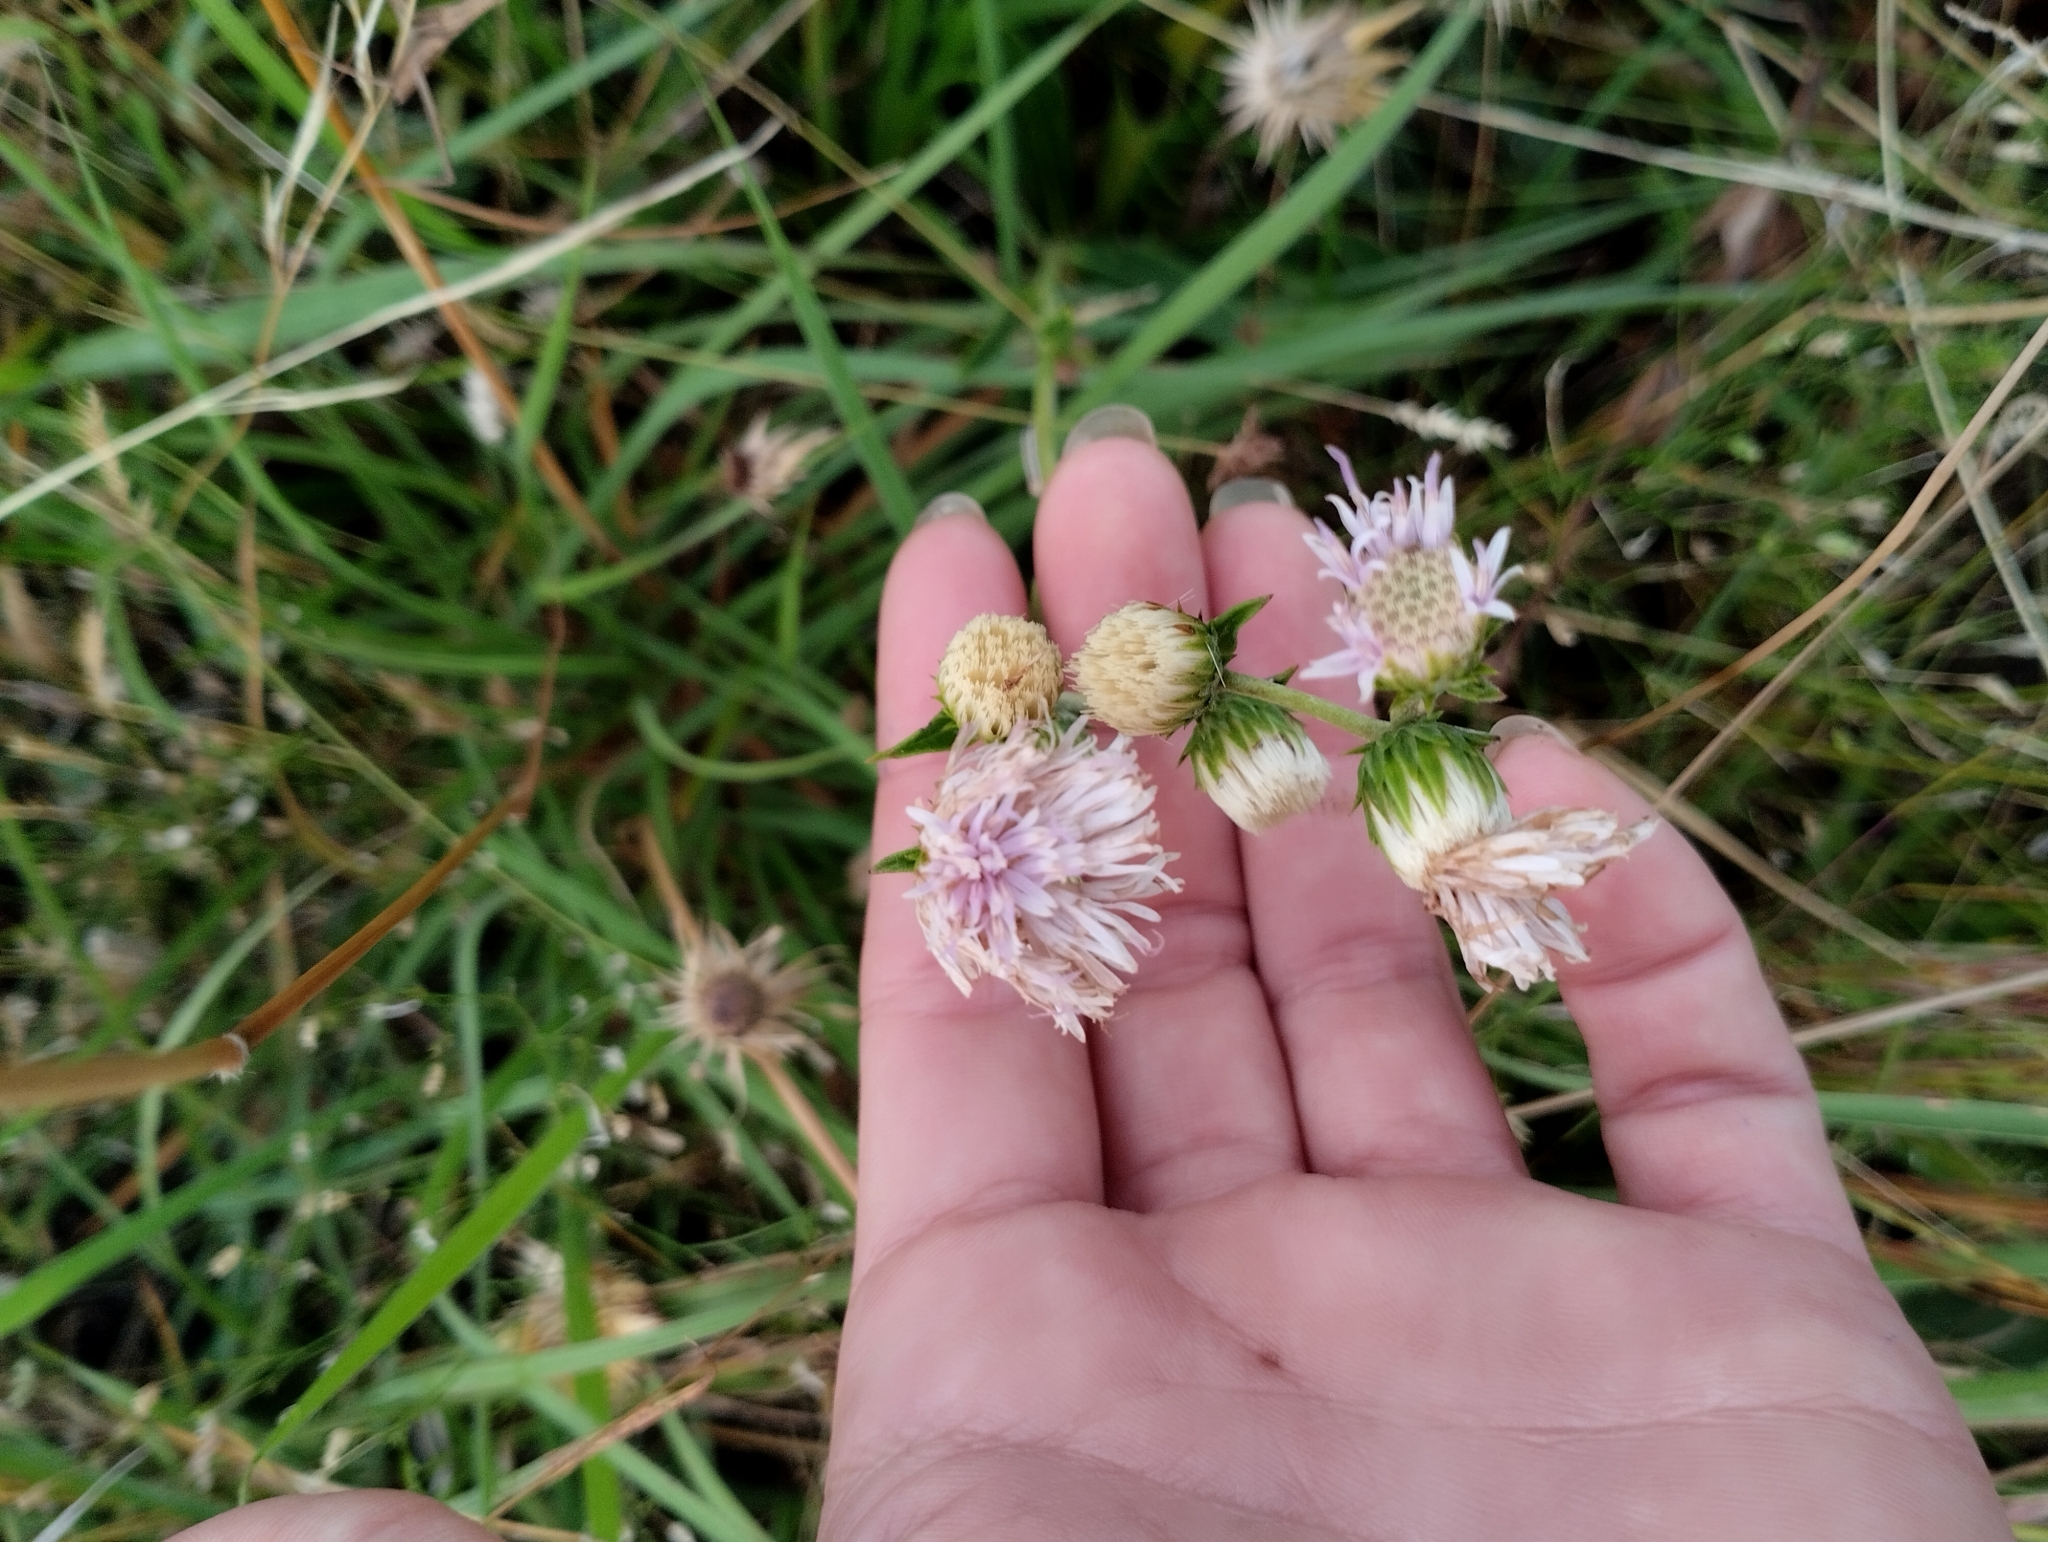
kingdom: Plantae
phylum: Tracheophyta
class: Magnoliopsida
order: Asterales
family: Asteraceae
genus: Chrysolaena
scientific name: Chrysolaena flexuosa
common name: Zig-zag vernonia
